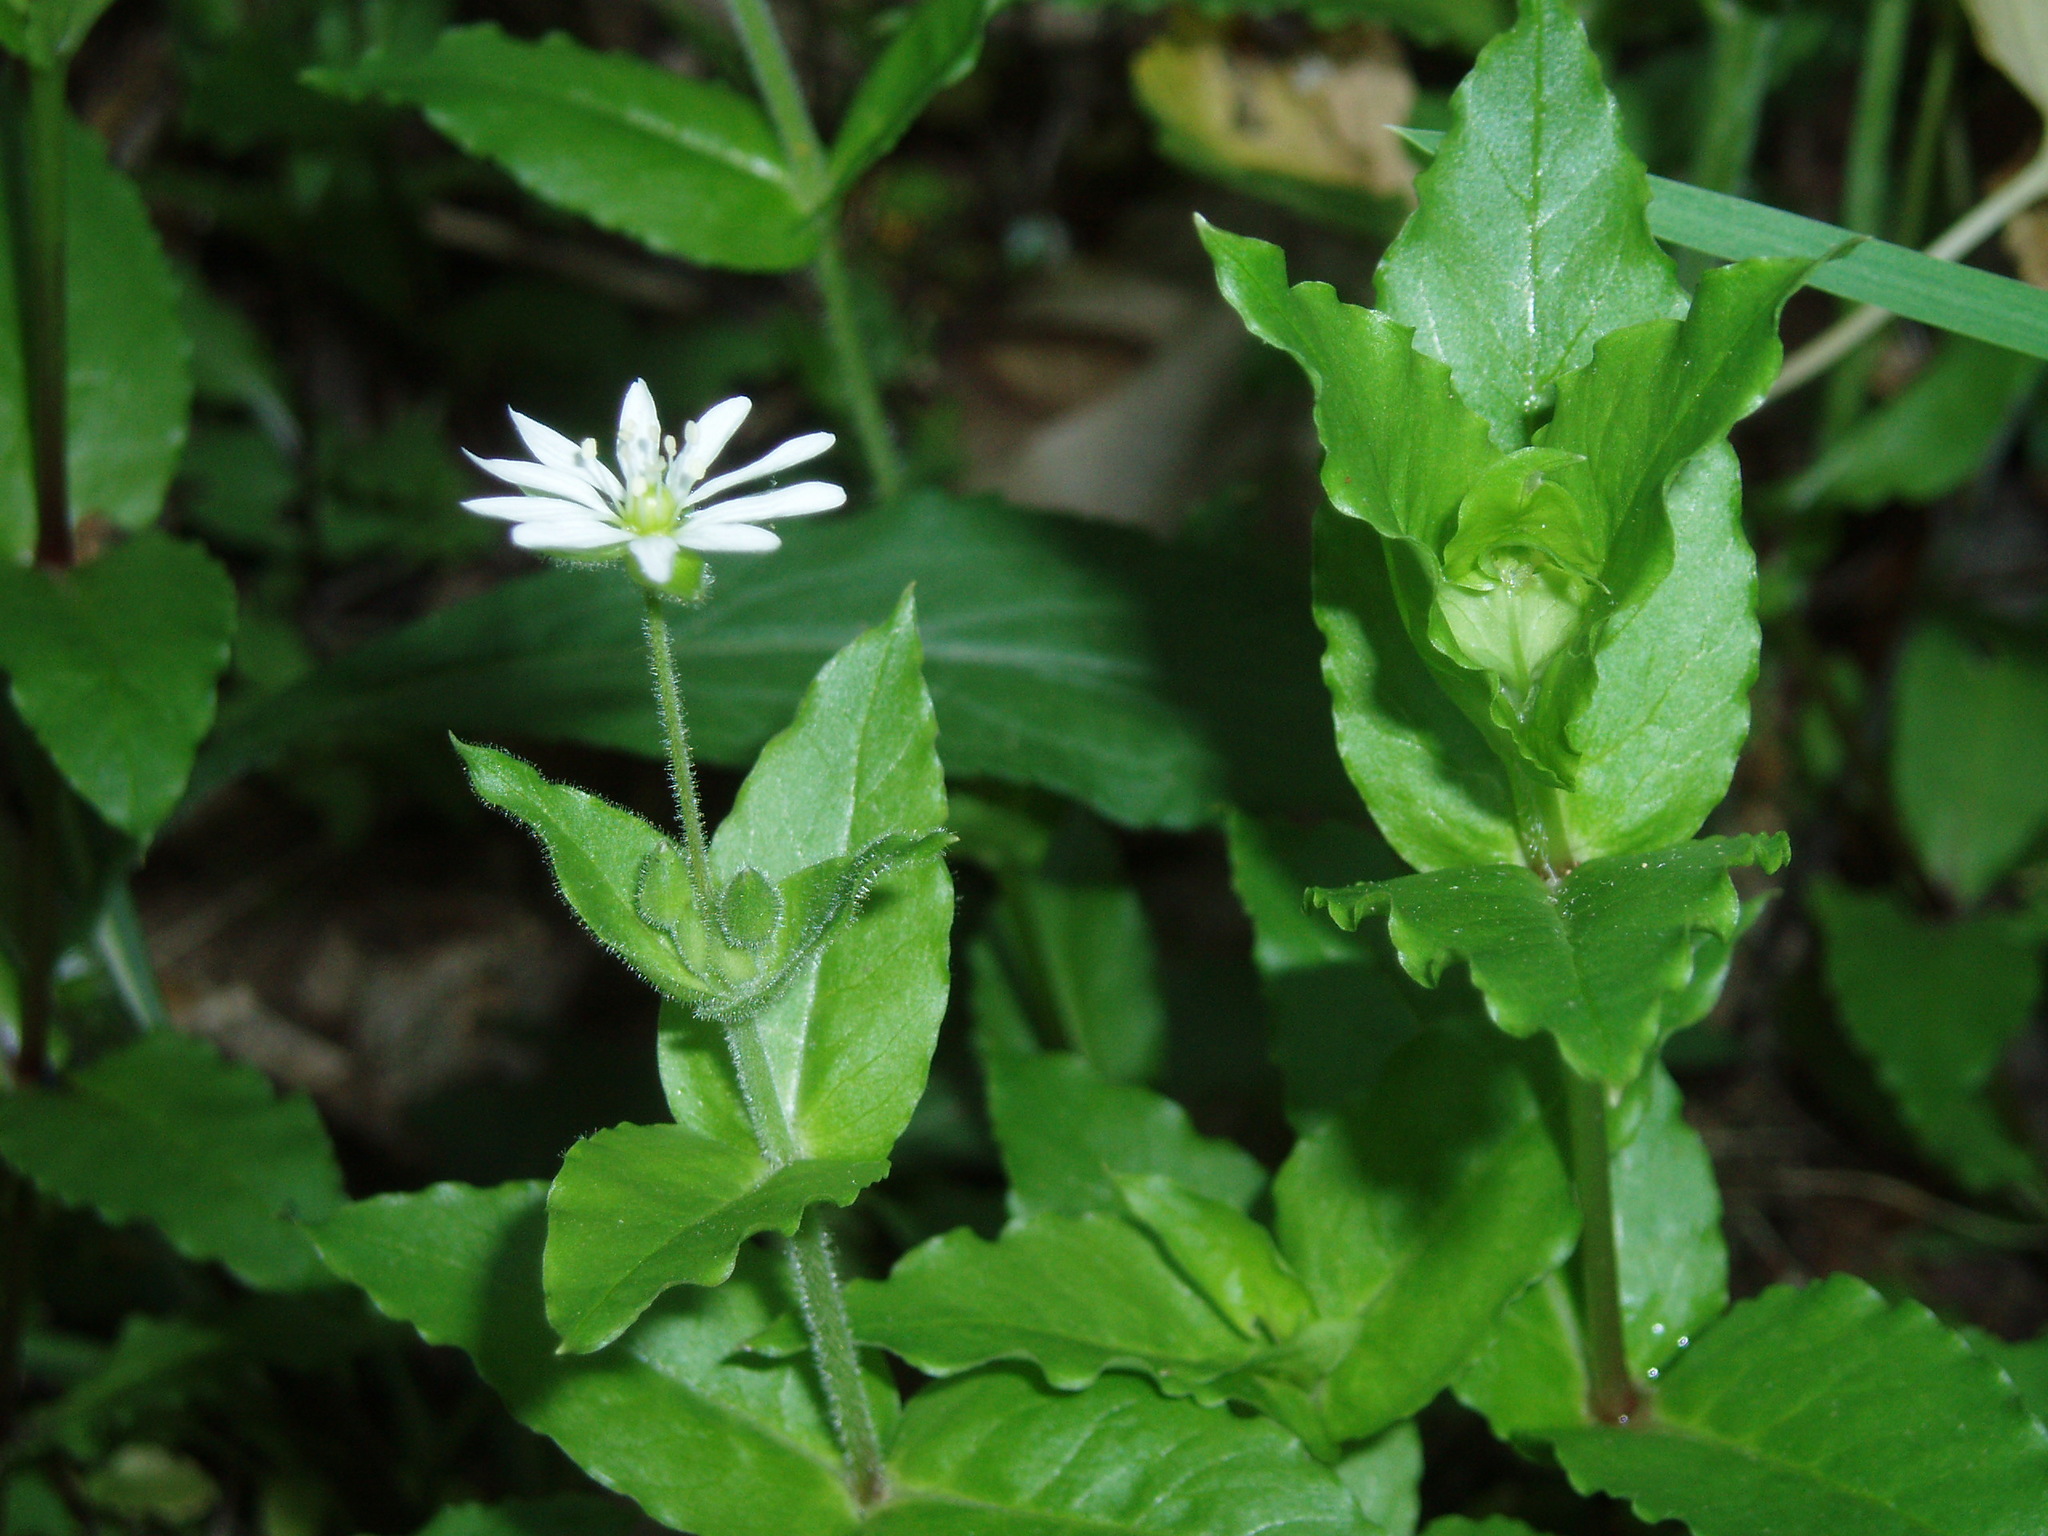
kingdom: Plantae
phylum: Tracheophyta
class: Magnoliopsida
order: Caryophyllales
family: Caryophyllaceae
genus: Stellaria
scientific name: Stellaria aquatica
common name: Water chickweed
